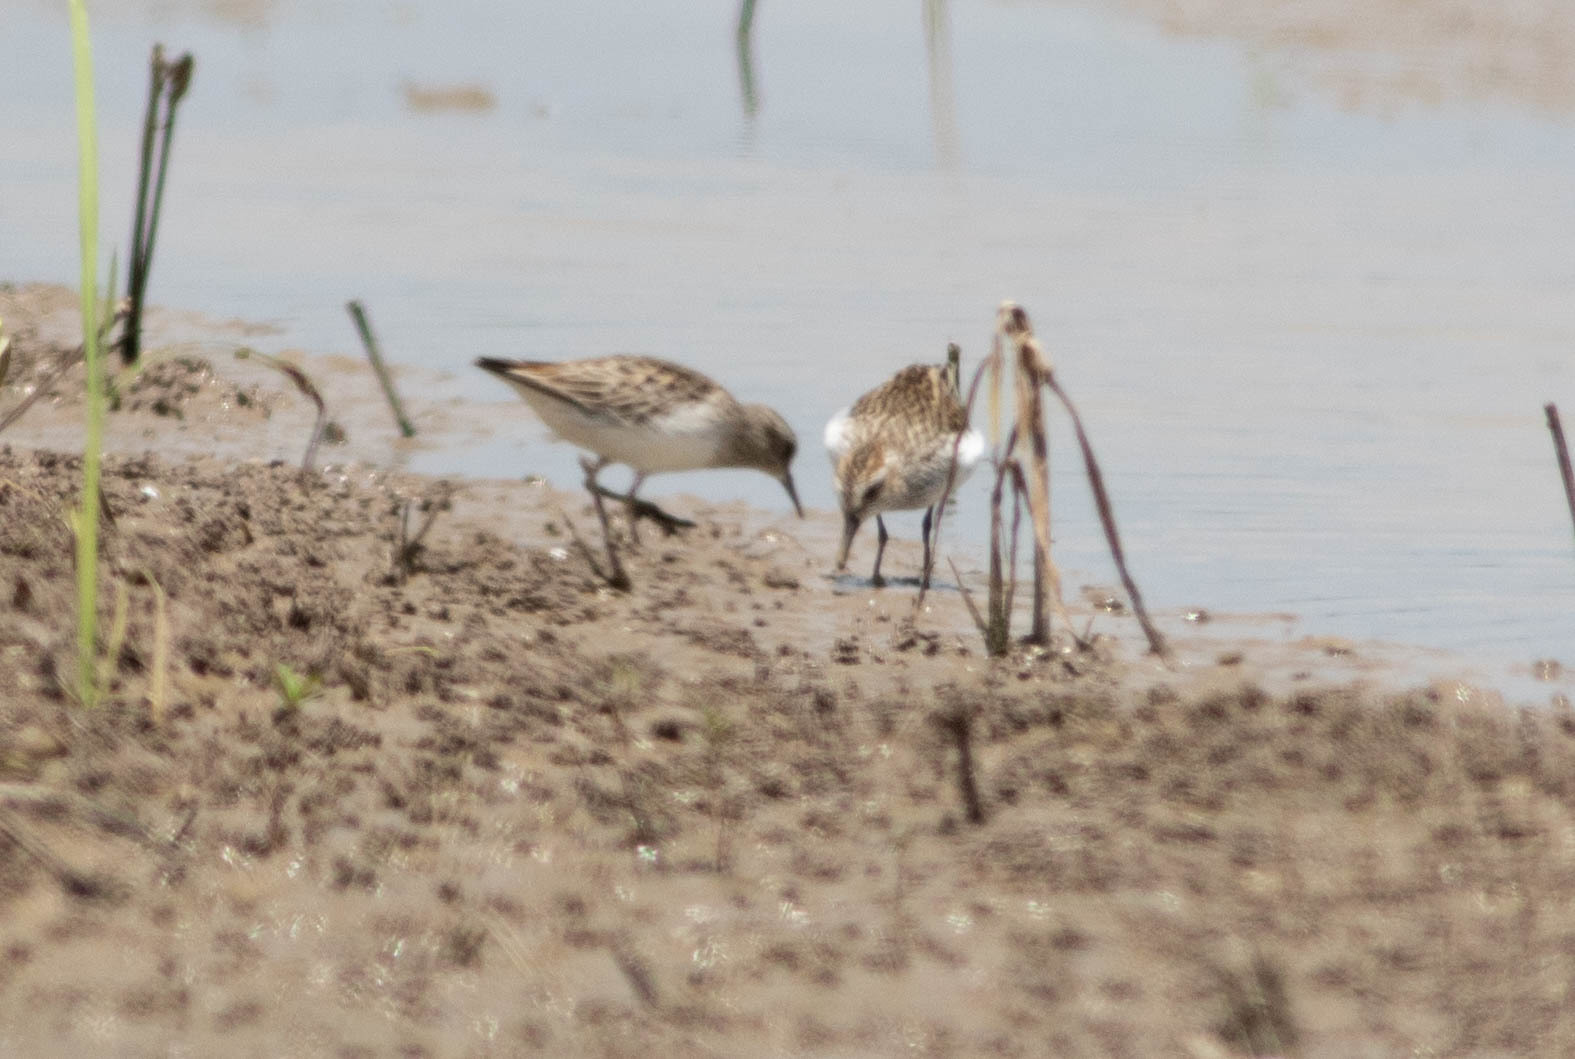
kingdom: Animalia
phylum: Chordata
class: Aves
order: Charadriiformes
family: Scolopacidae
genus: Calidris
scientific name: Calidris minutilla
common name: Least sandpiper
